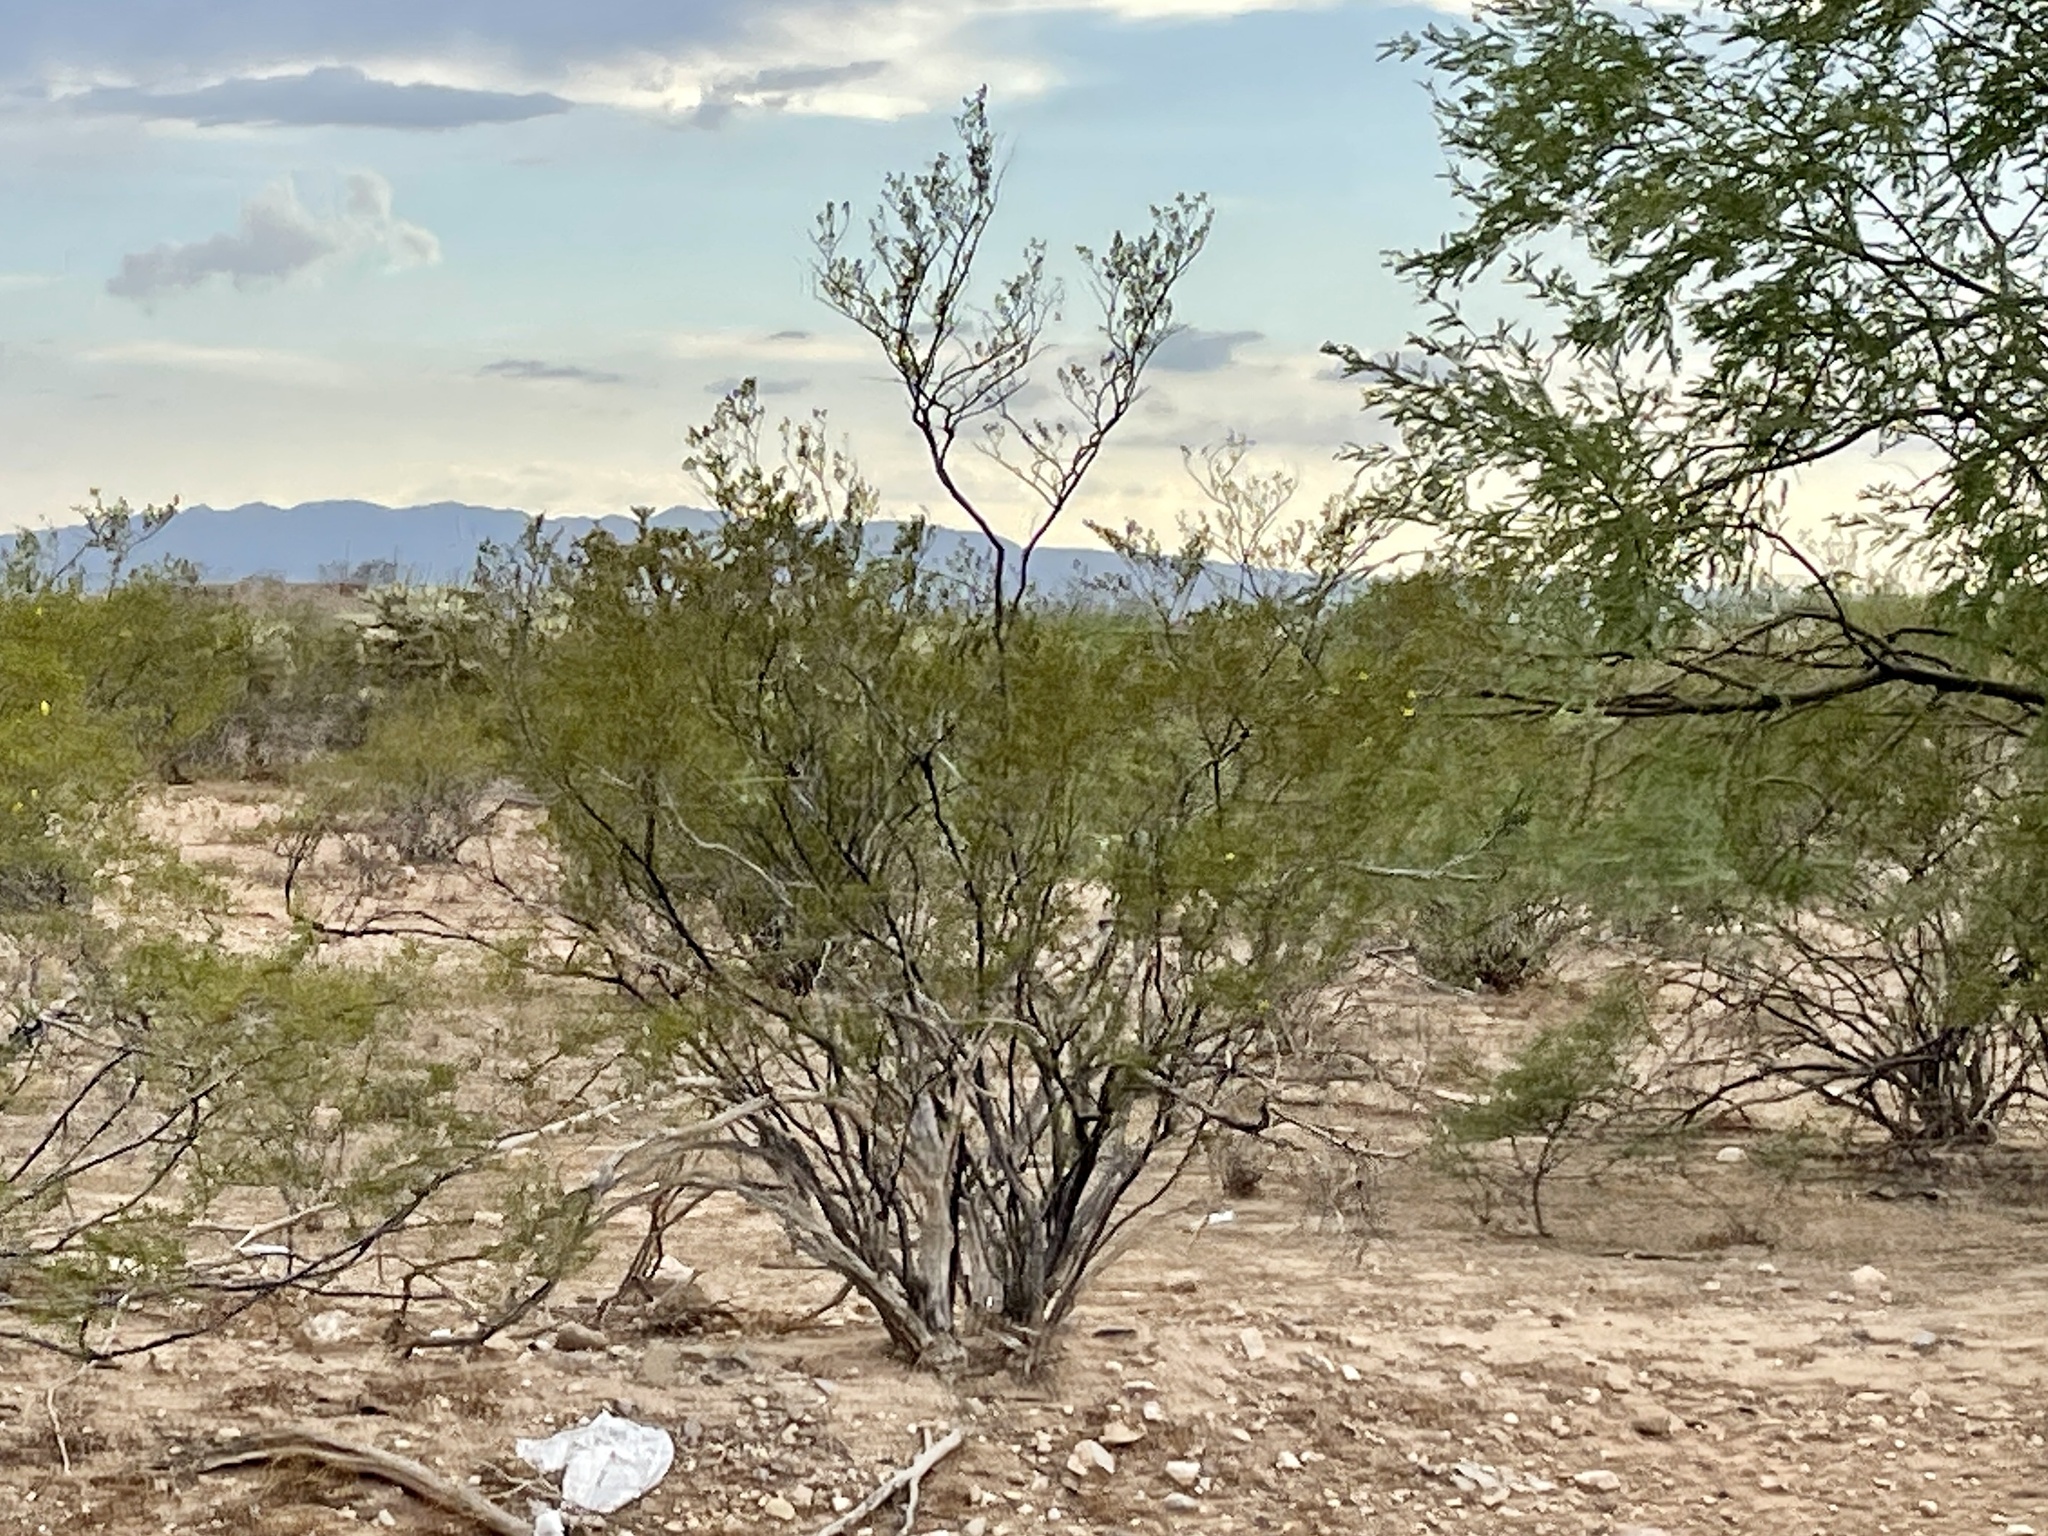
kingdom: Plantae
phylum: Tracheophyta
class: Magnoliopsida
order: Zygophyllales
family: Zygophyllaceae
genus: Larrea
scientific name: Larrea tridentata
